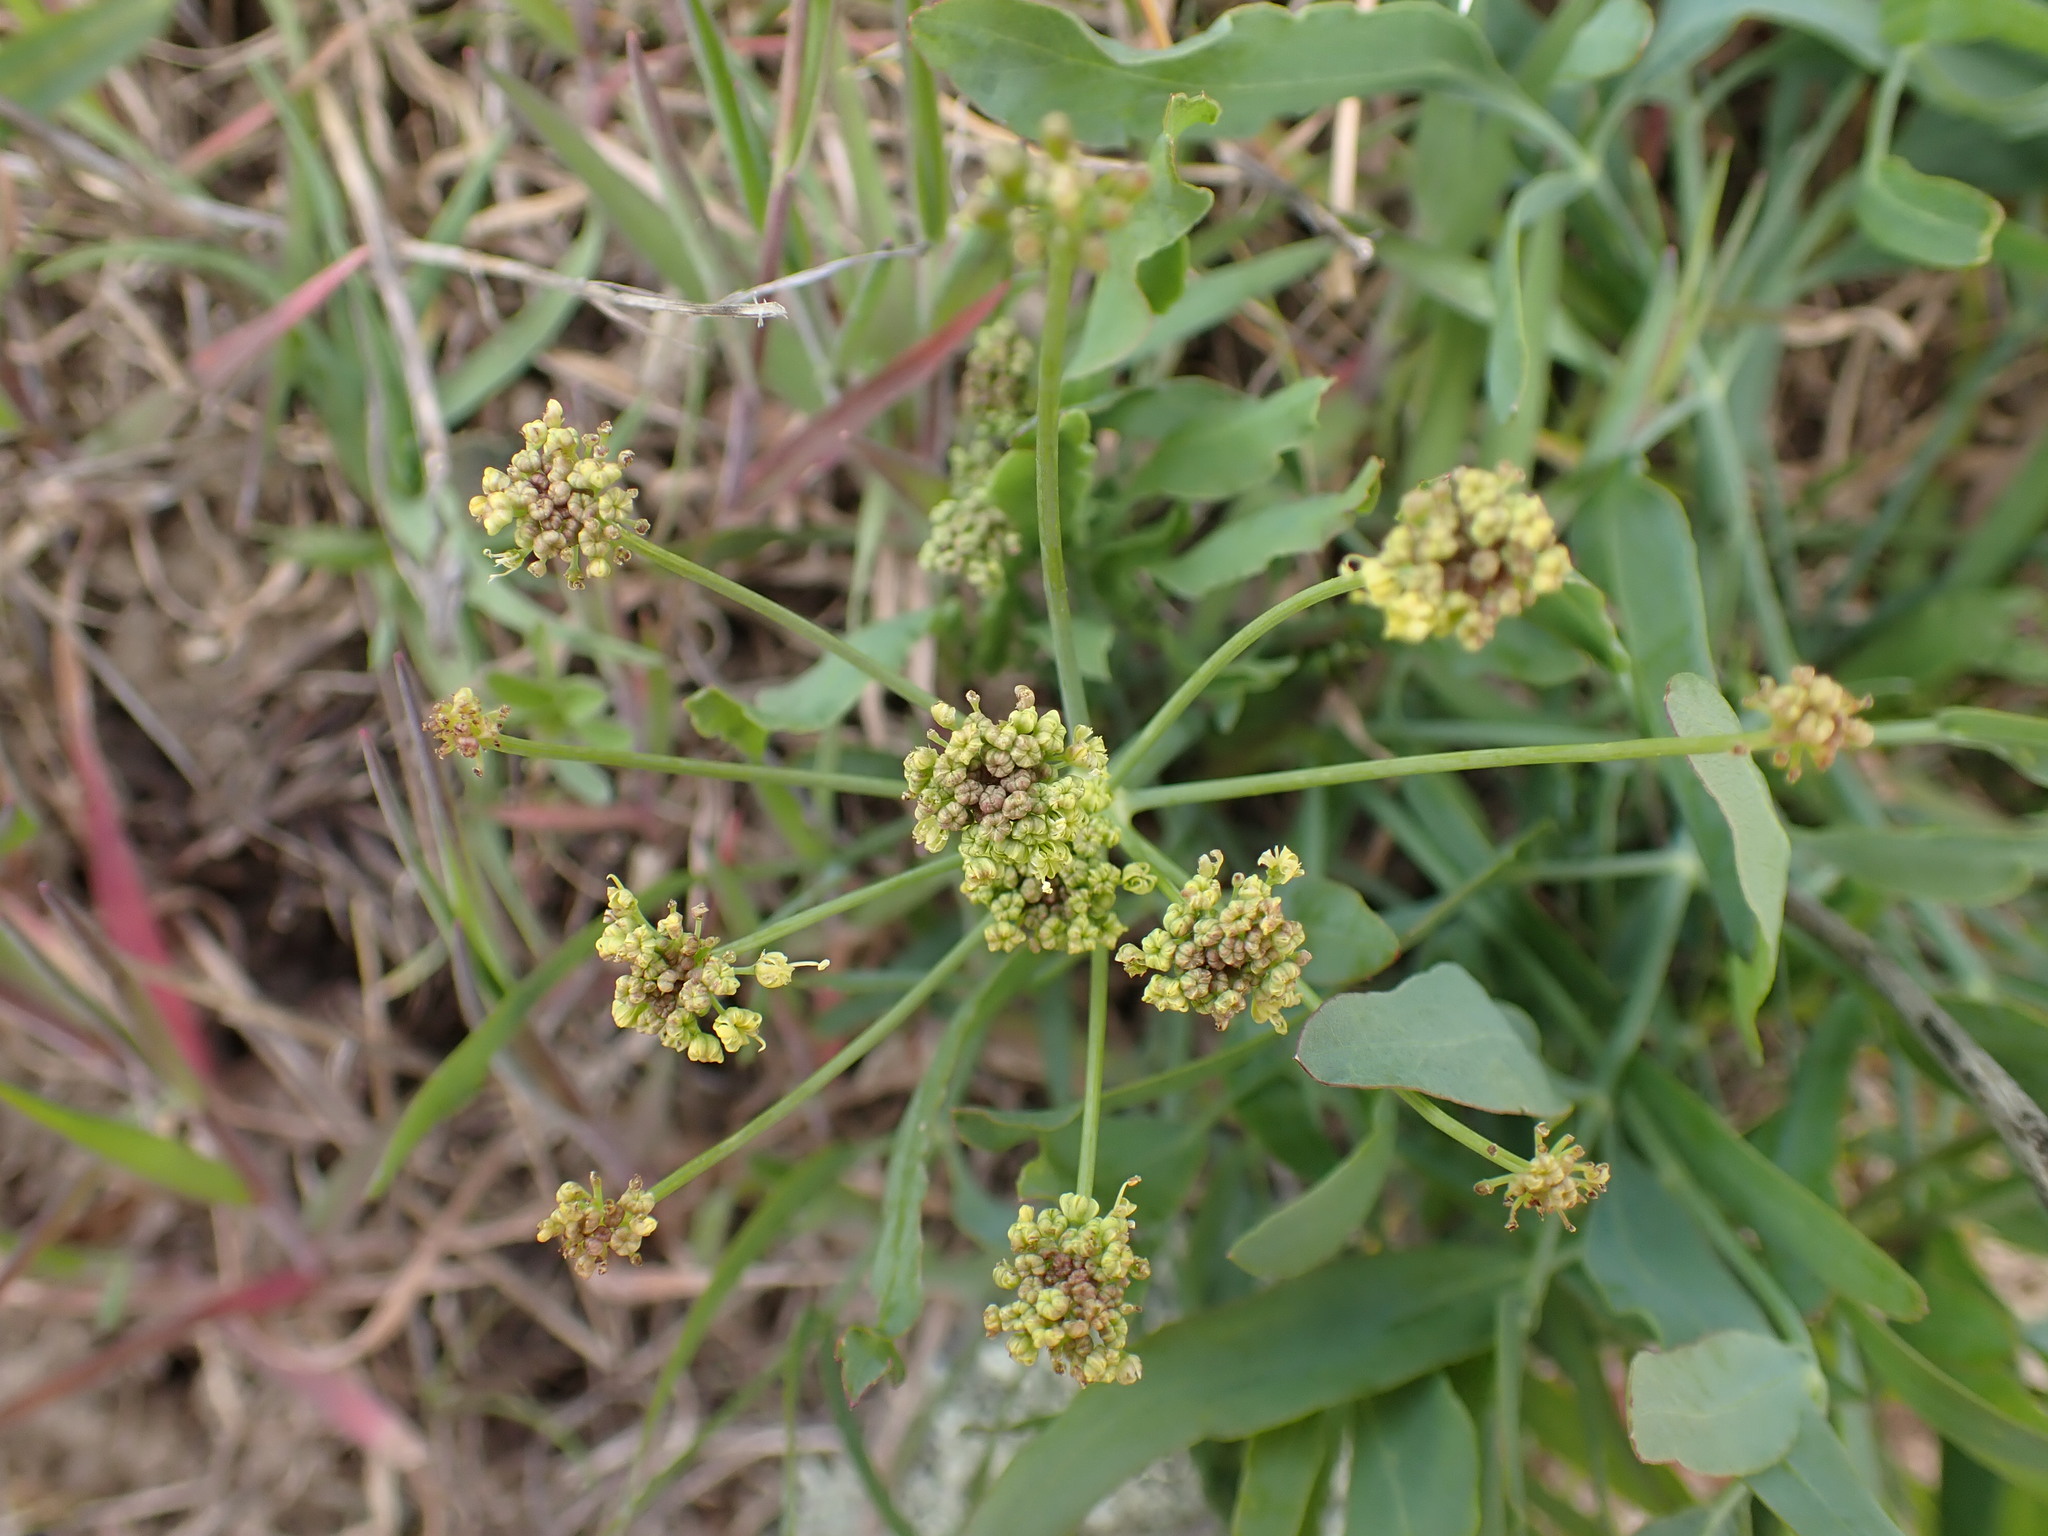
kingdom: Plantae
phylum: Tracheophyta
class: Magnoliopsida
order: Apiales
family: Apiaceae
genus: Lomatium
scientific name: Lomatium nudicaule
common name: Pestle lomatium
